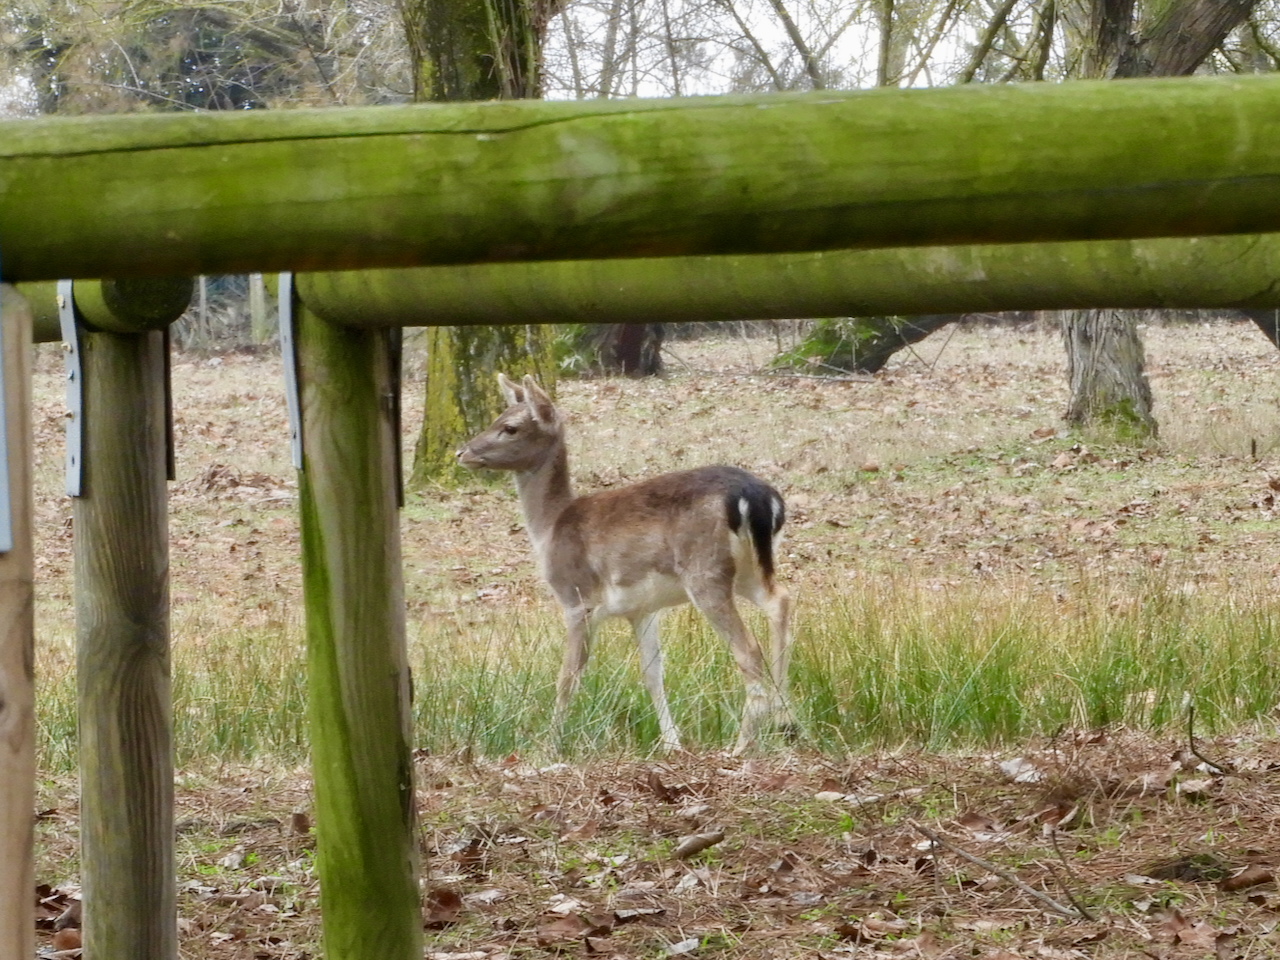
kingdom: Animalia
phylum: Chordata
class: Mammalia
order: Artiodactyla
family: Cervidae
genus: Dama
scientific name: Dama dama
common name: Fallow deer
